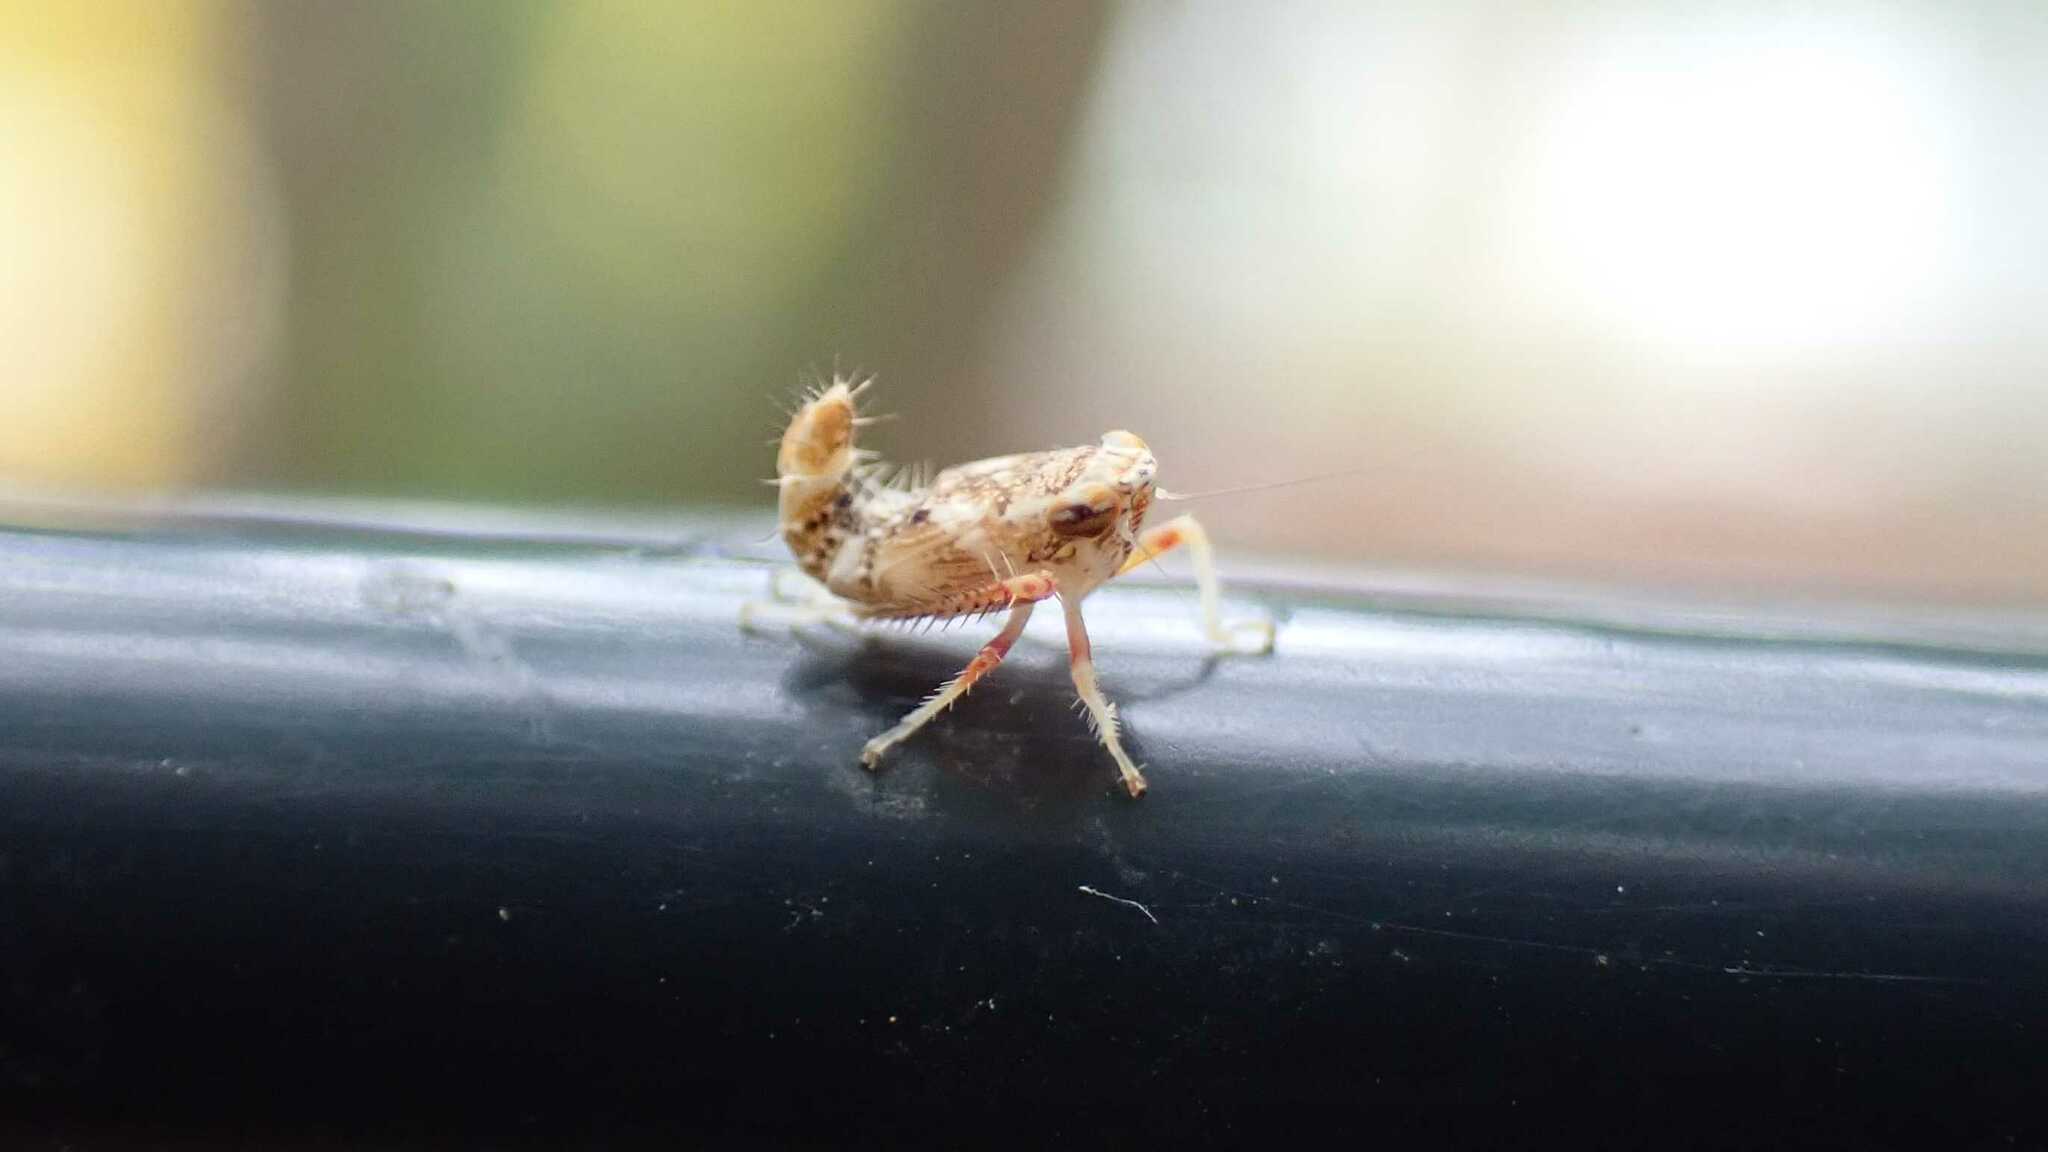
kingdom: Animalia
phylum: Arthropoda
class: Insecta
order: Hemiptera
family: Cicadellidae
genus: Orientus
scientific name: Orientus ishidae
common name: Japanese leafhopper
